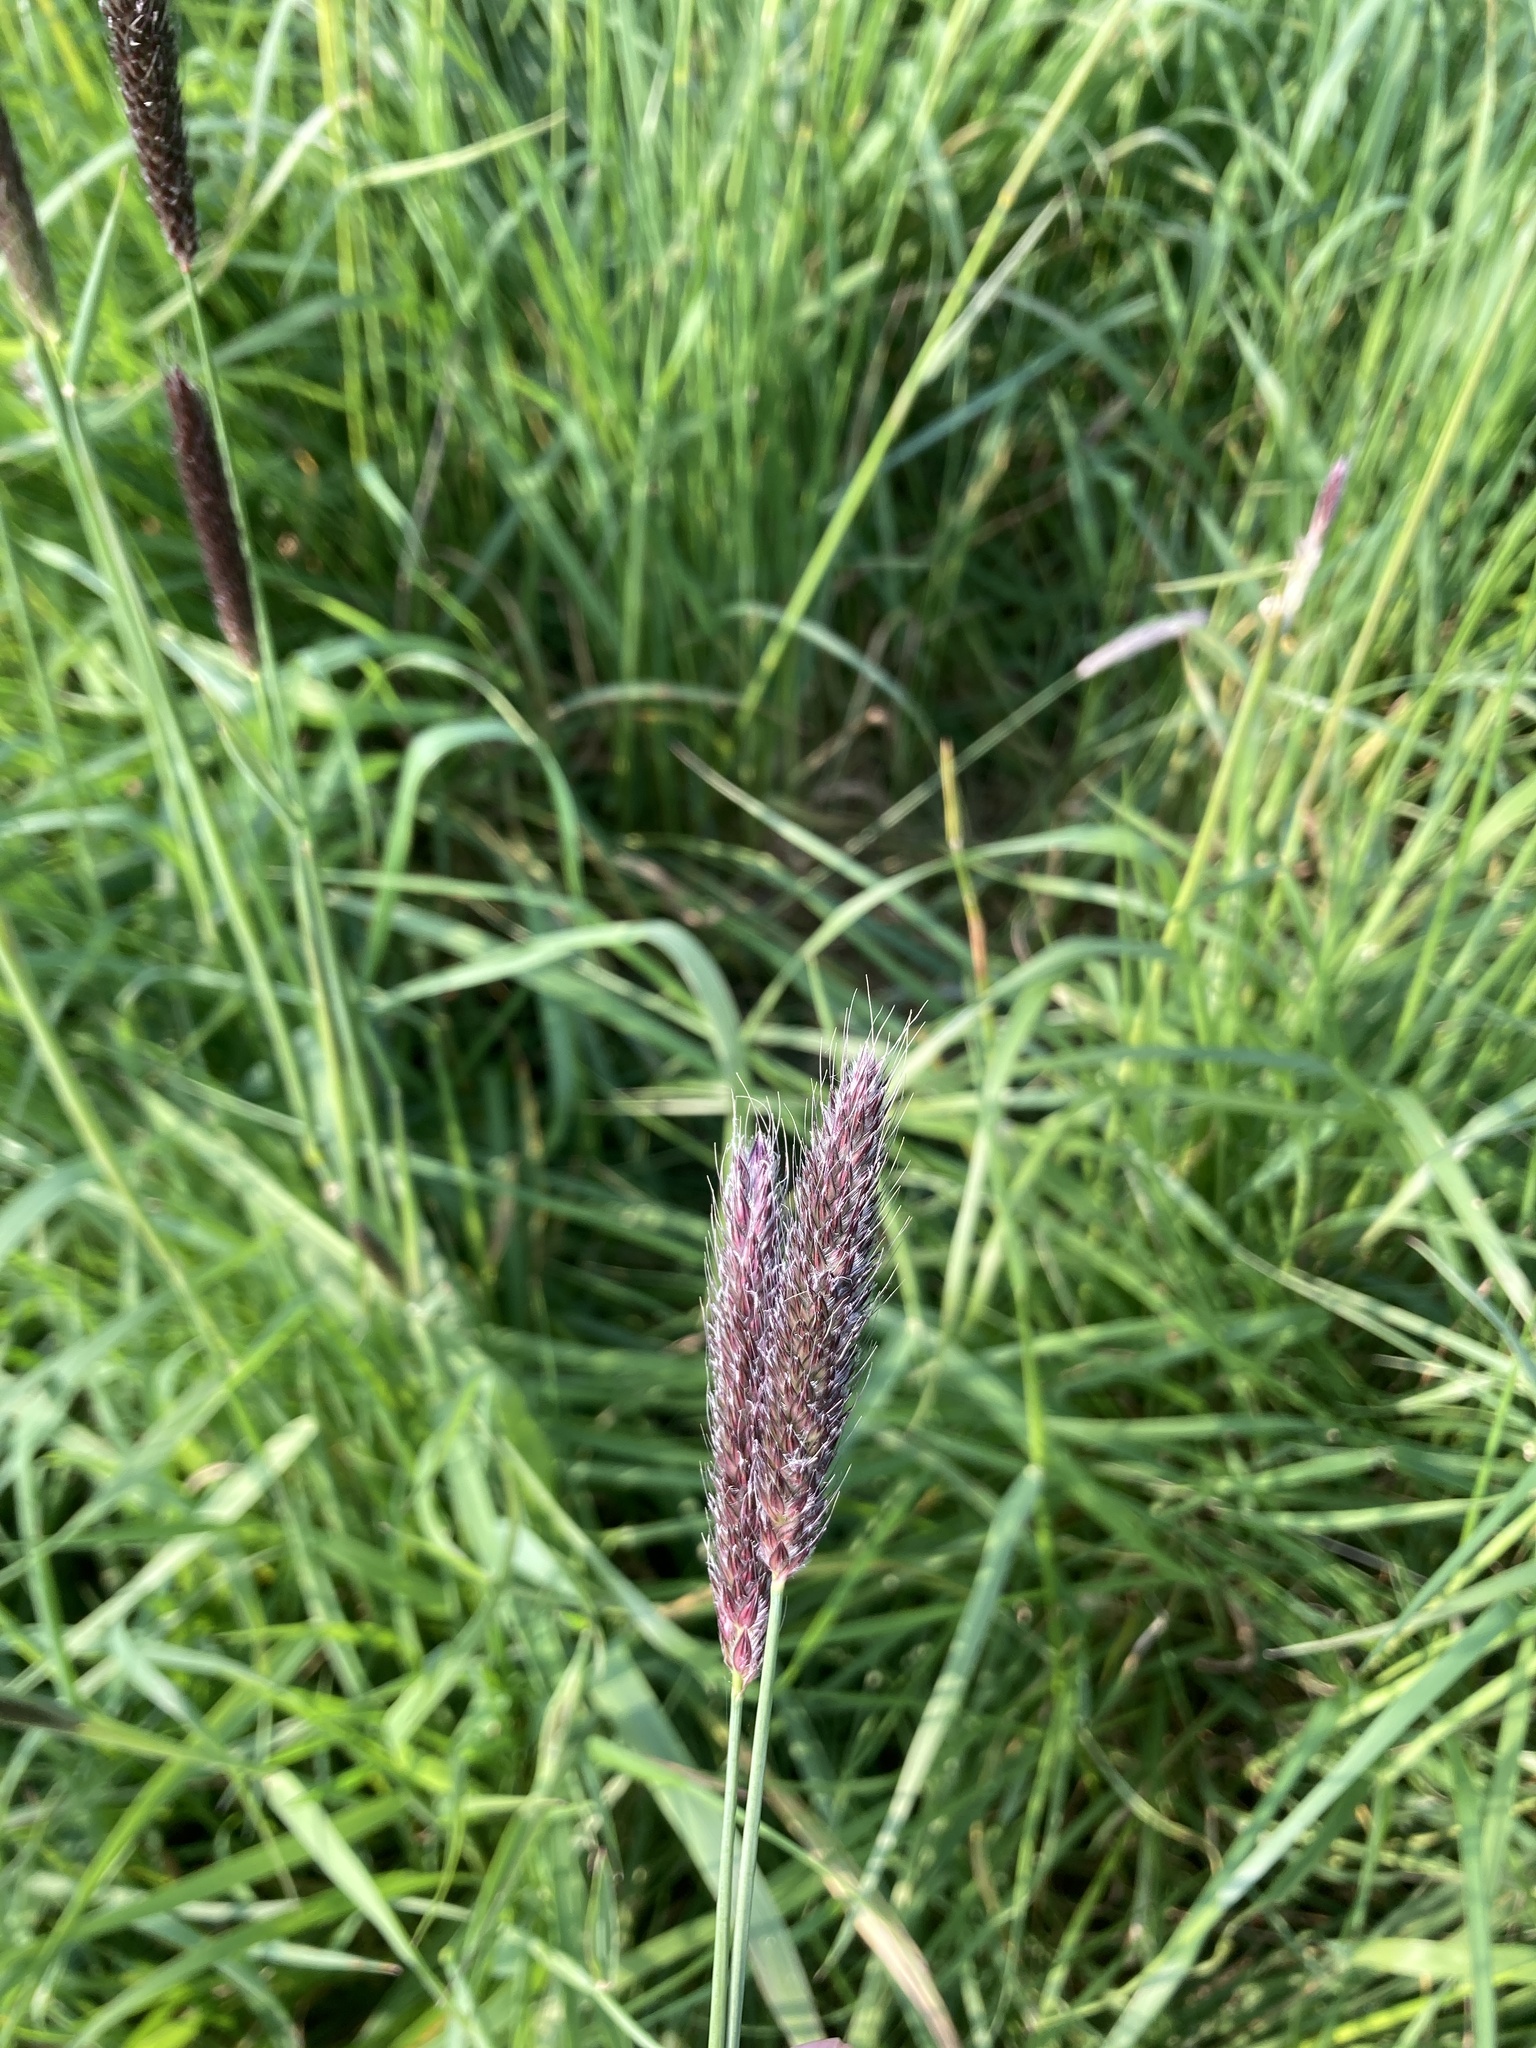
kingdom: Plantae
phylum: Tracheophyta
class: Liliopsida
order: Poales
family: Poaceae
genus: Alopecurus
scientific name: Alopecurus pratensis
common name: Meadow foxtail
